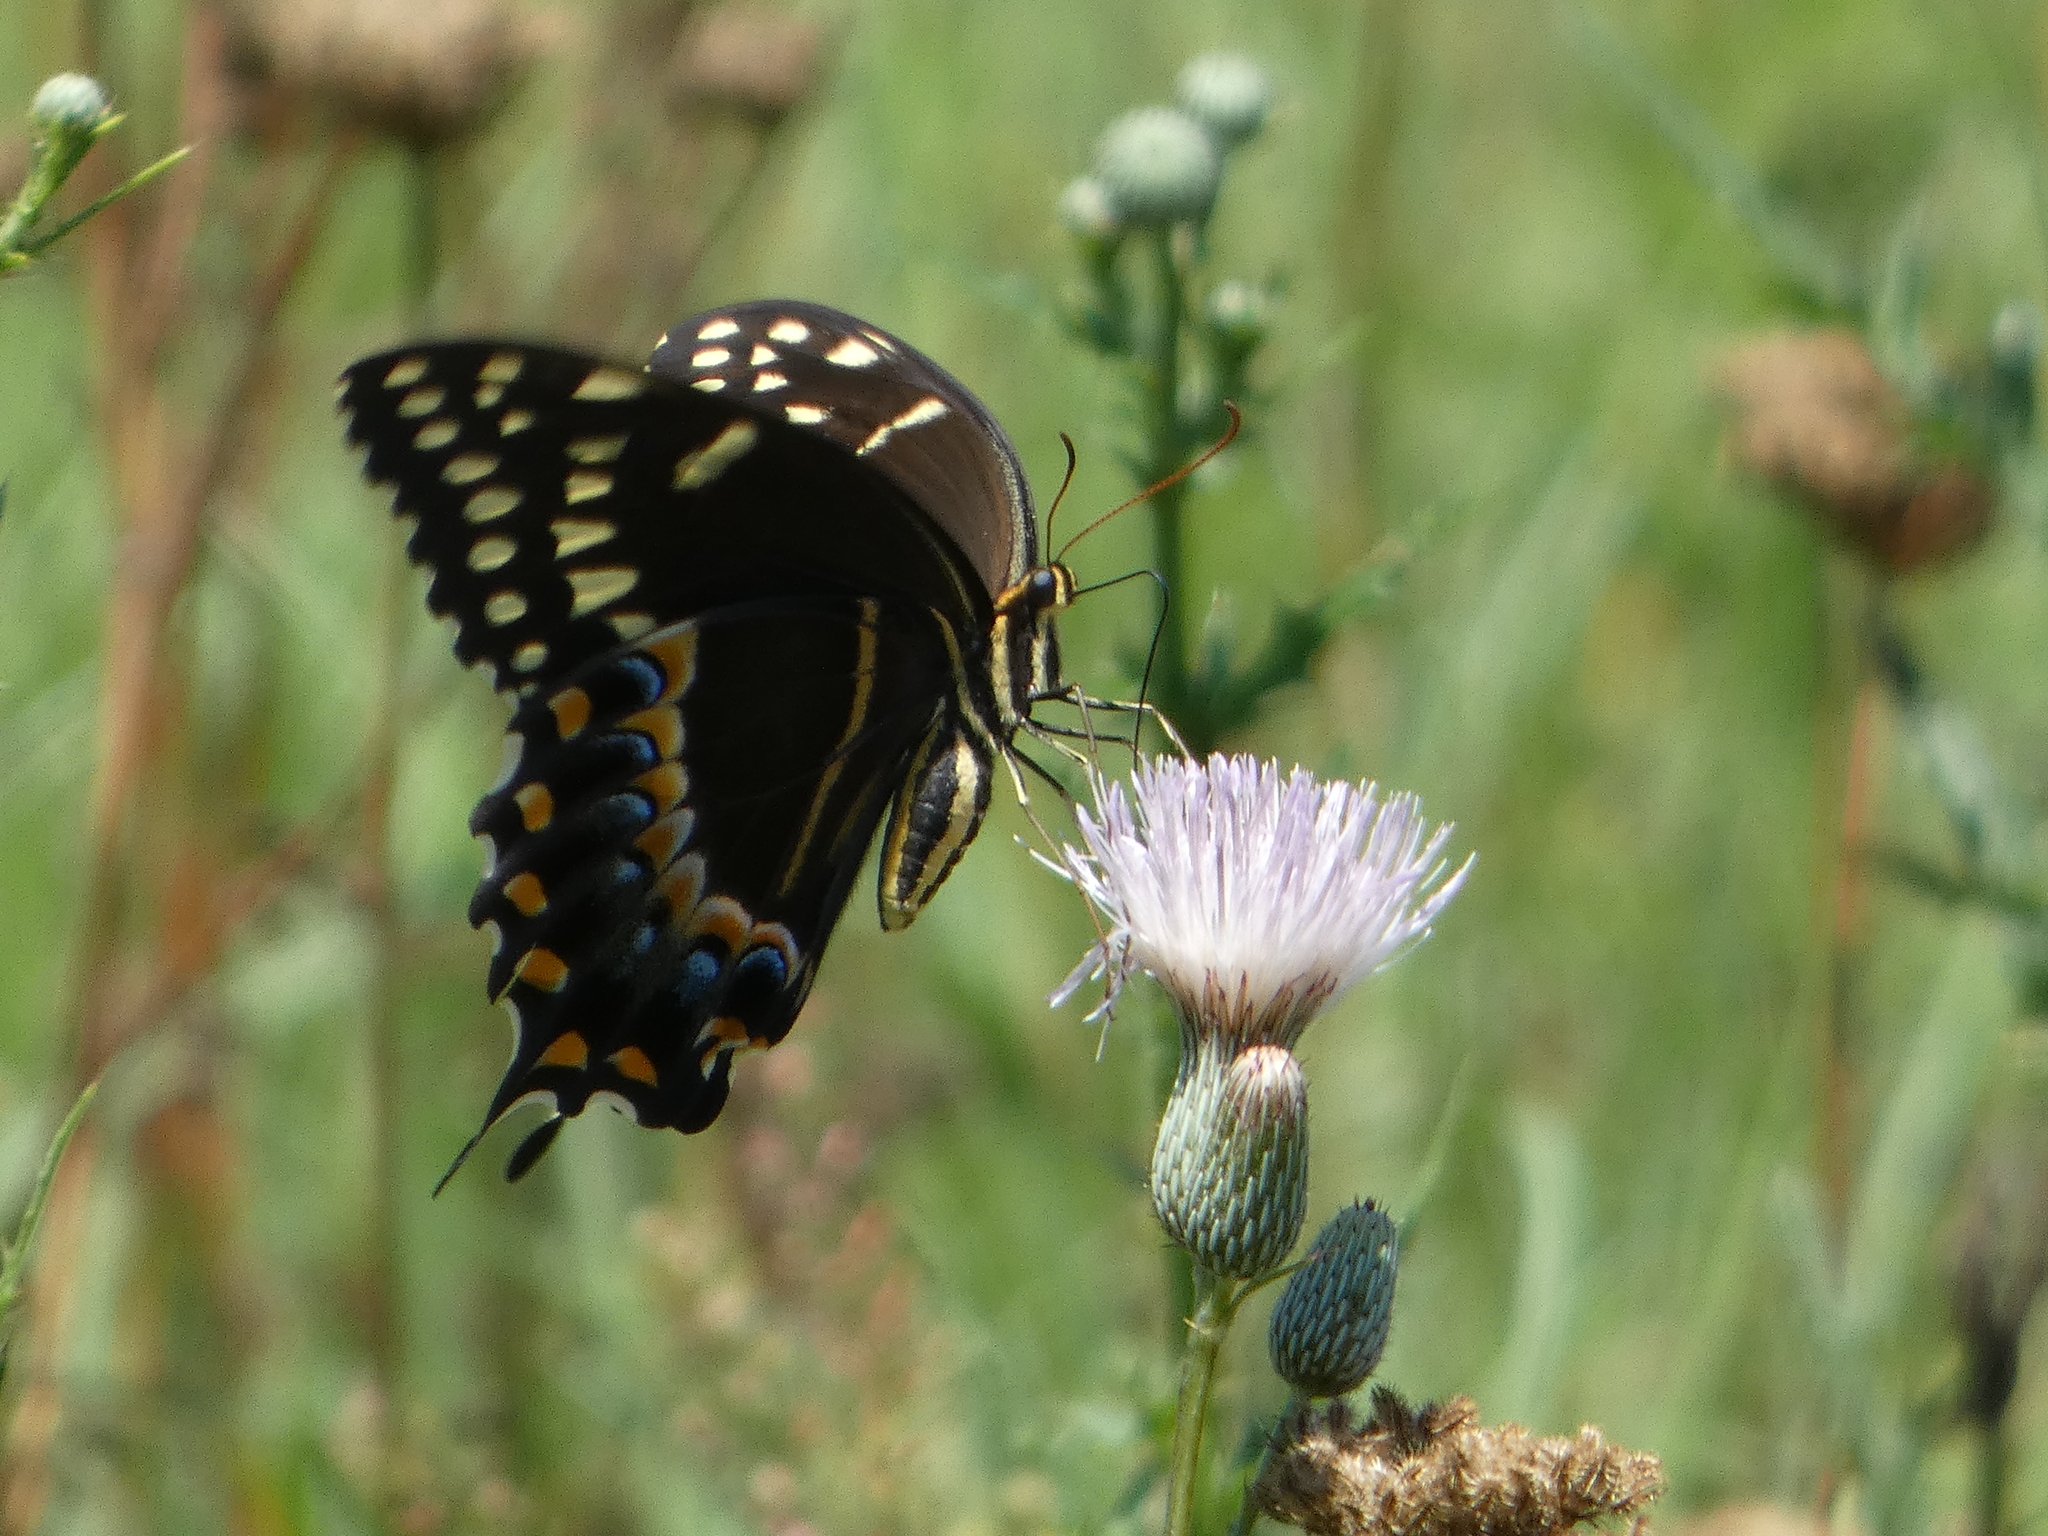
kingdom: Animalia
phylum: Arthropoda
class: Insecta
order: Lepidoptera
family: Papilionidae
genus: Papilio
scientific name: Papilio palamedes
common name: Palamedes swallowtail
